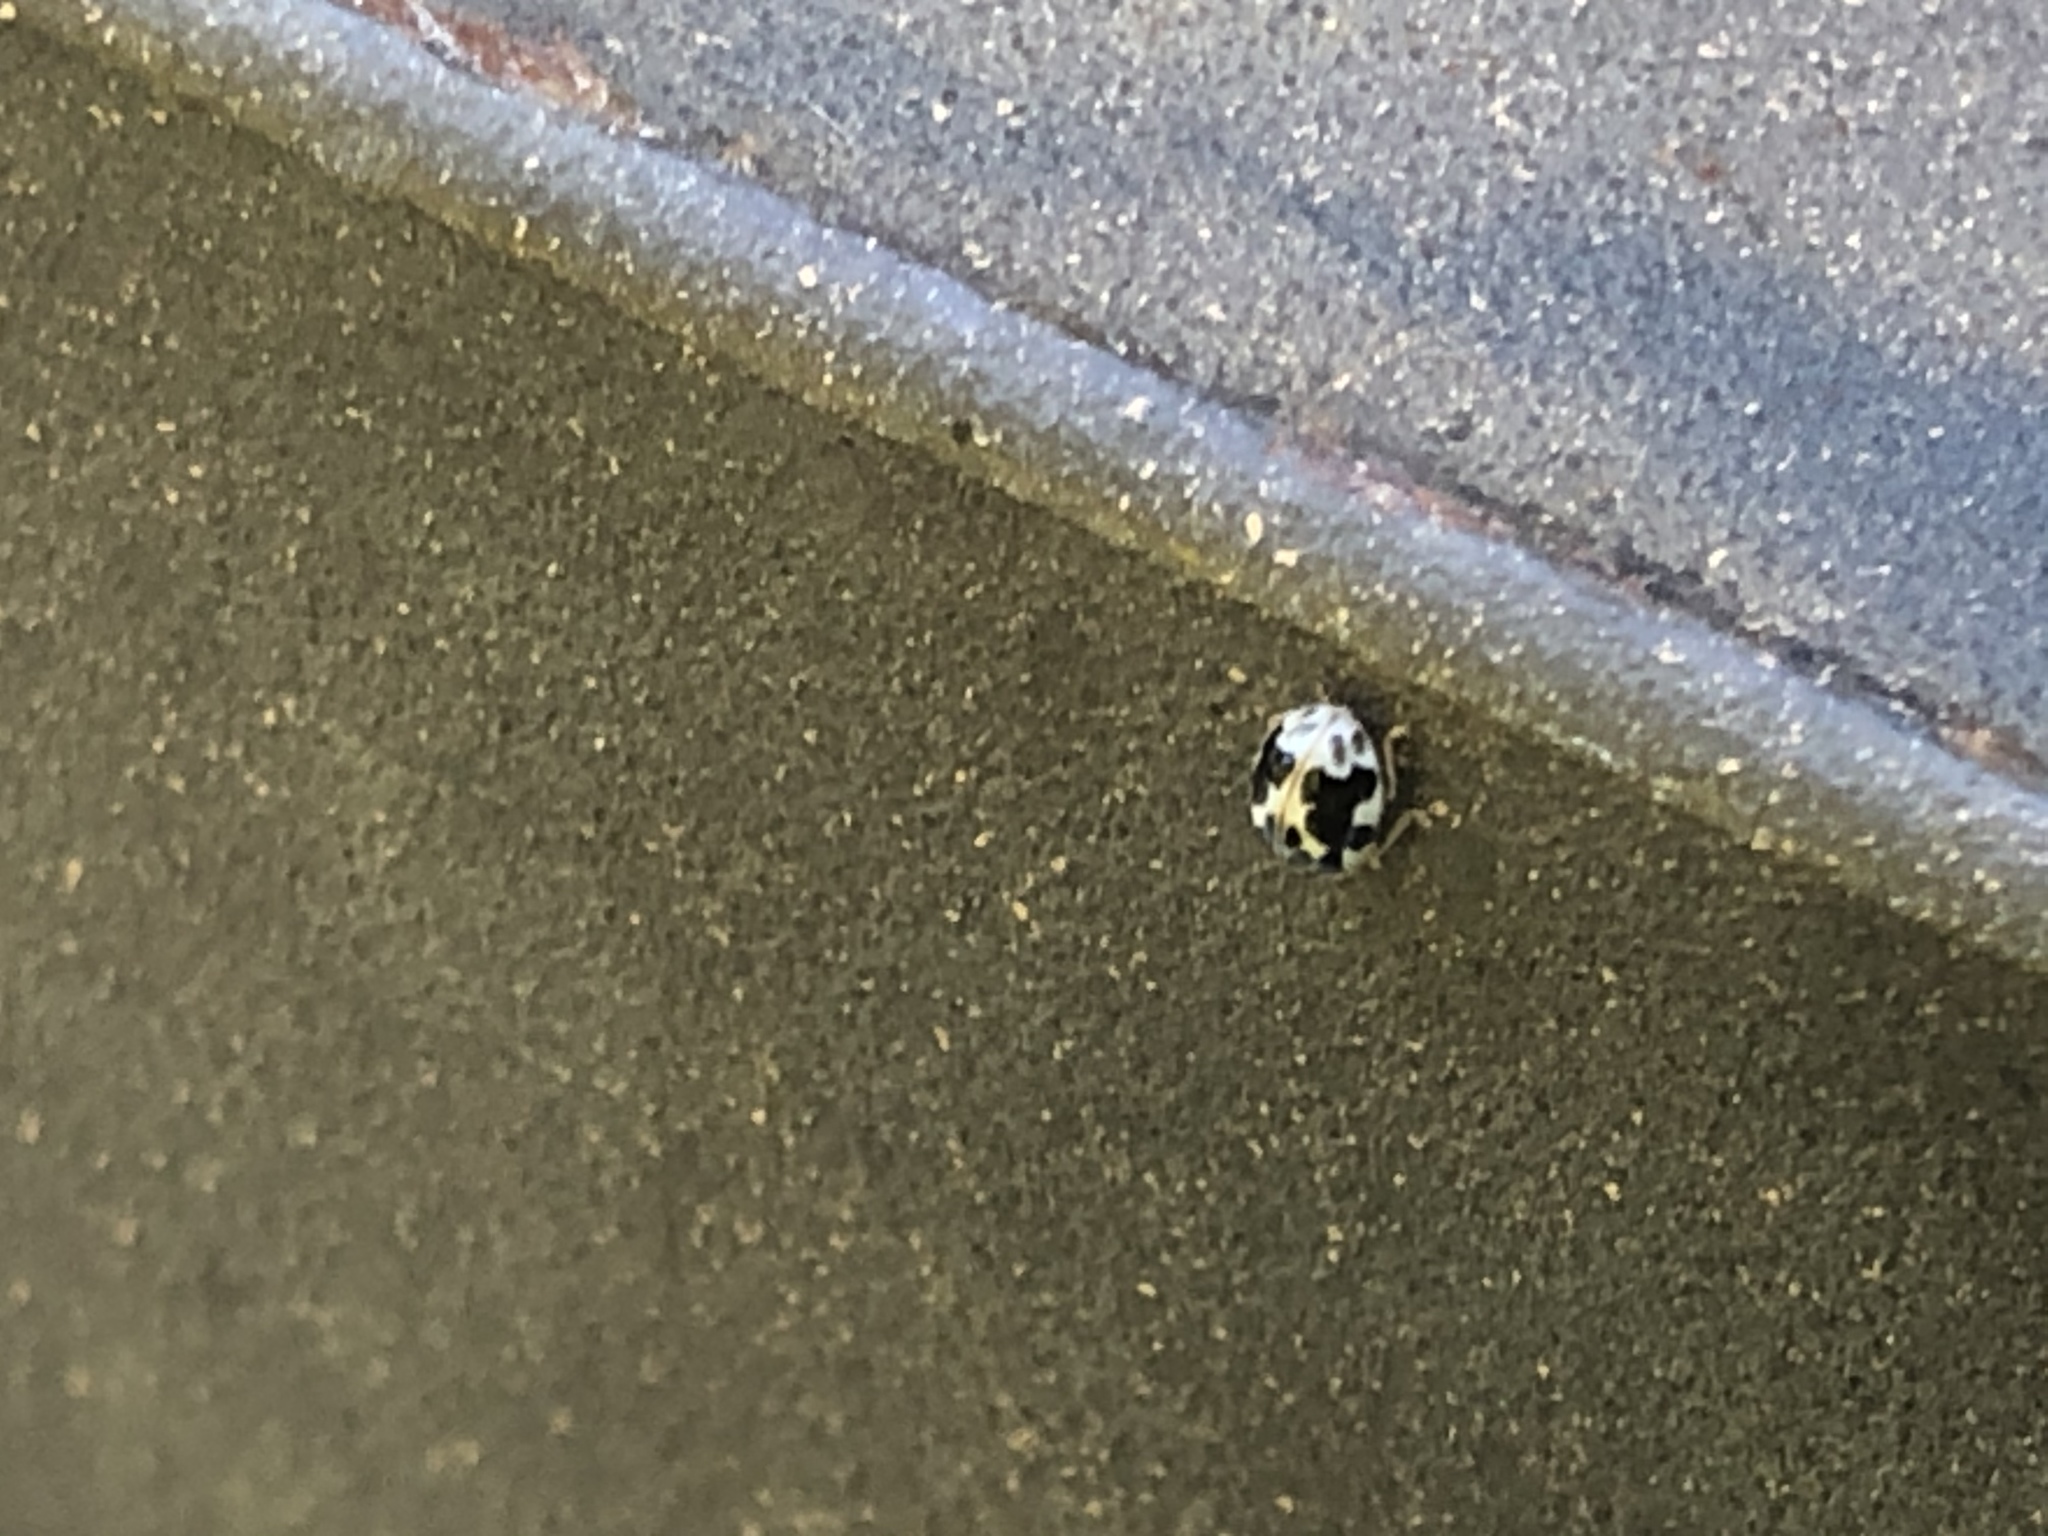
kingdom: Animalia
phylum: Arthropoda
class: Insecta
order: Coleoptera
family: Coccinellidae
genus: Psyllobora
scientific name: Psyllobora vigintimaculata
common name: Ladybird beetle
